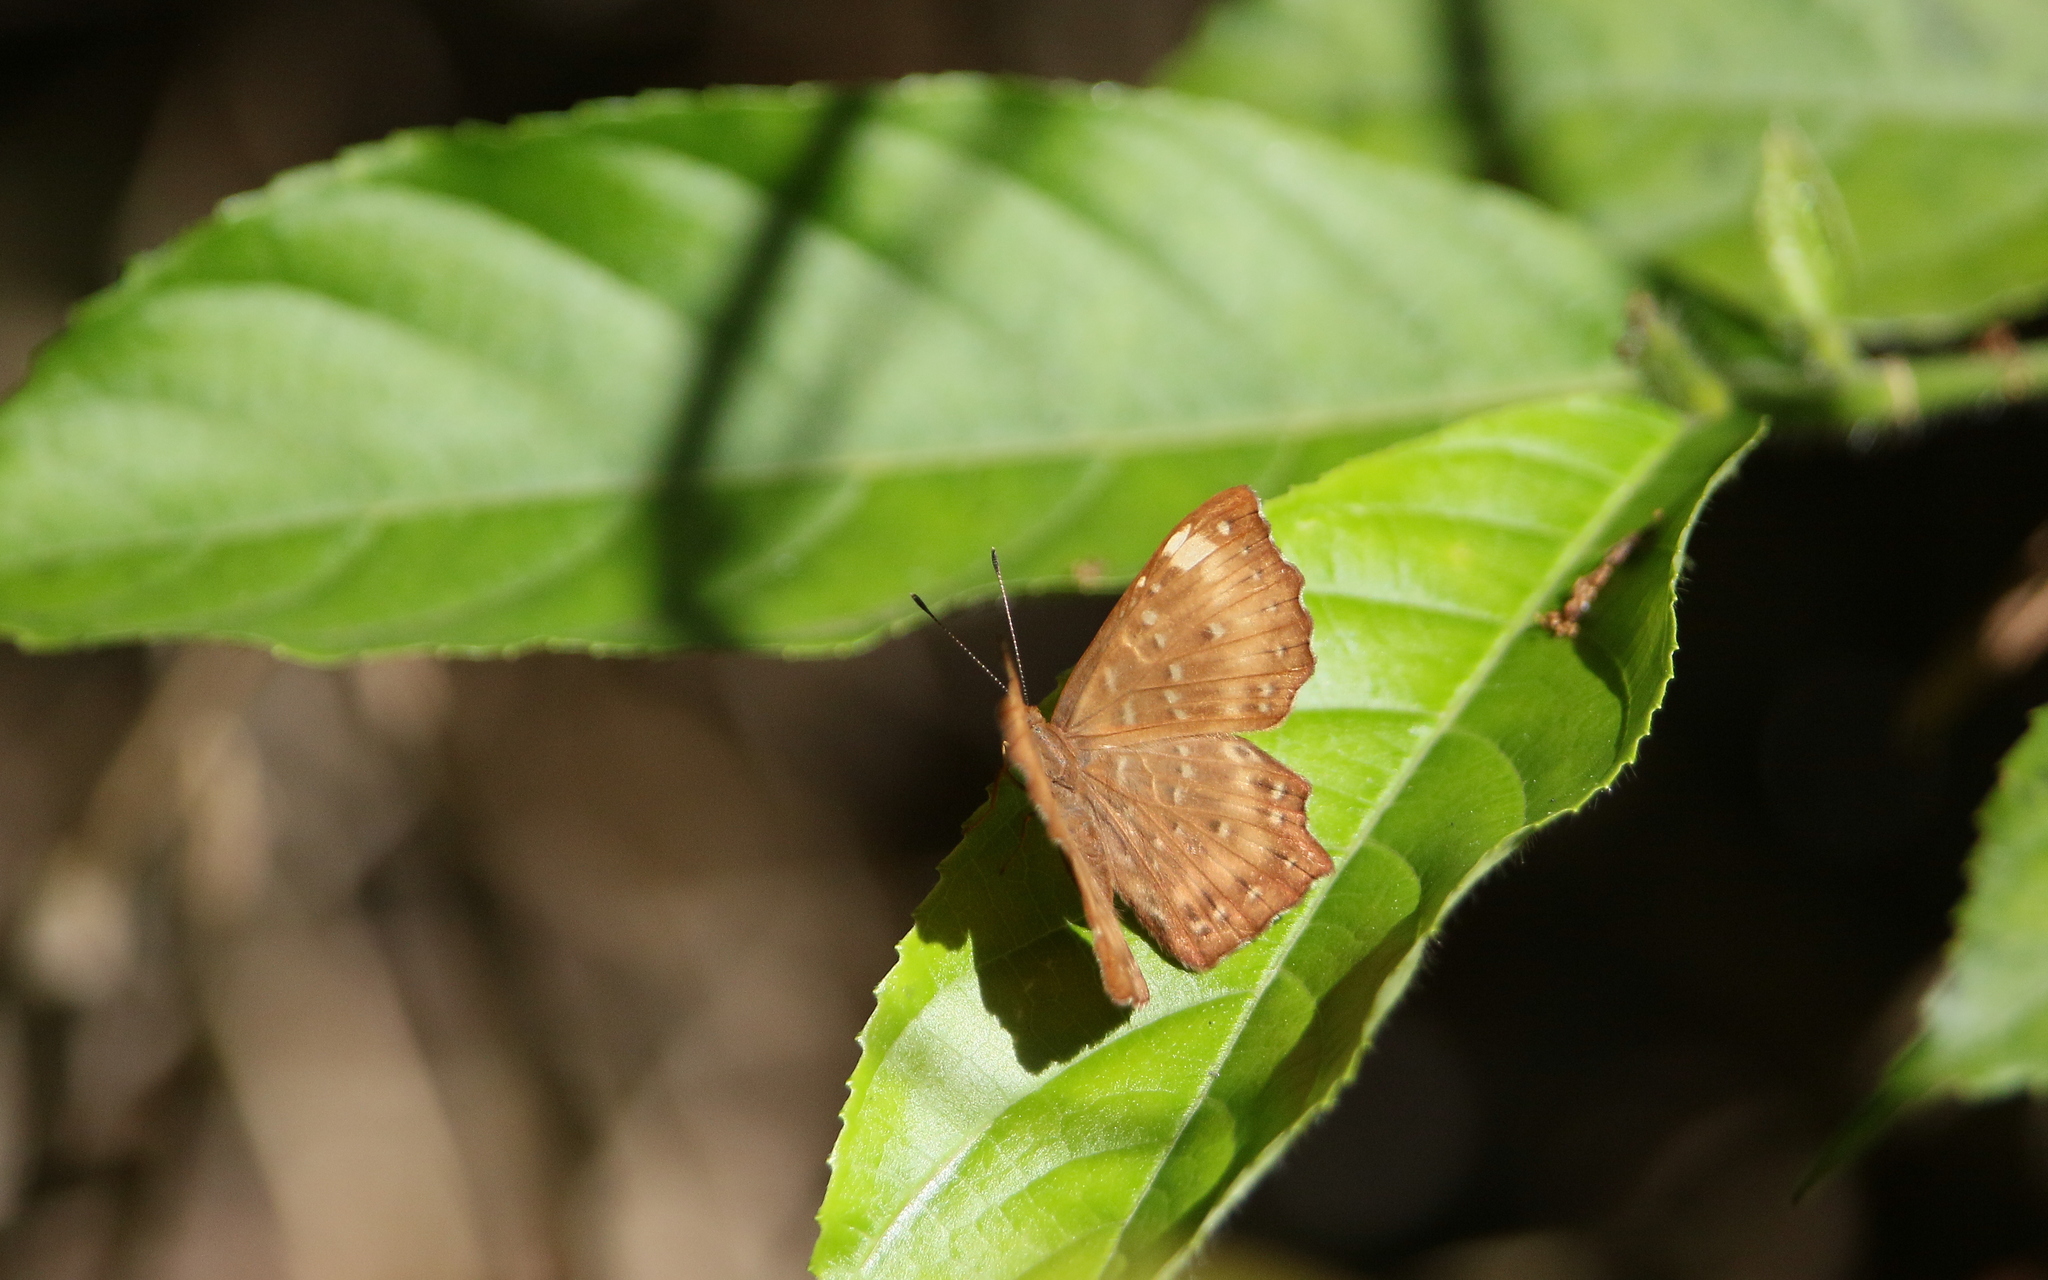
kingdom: Animalia
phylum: Arthropoda
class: Insecta
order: Lepidoptera
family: Riodinidae
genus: Zemeros
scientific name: Zemeros flegyas
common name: Punchinello
